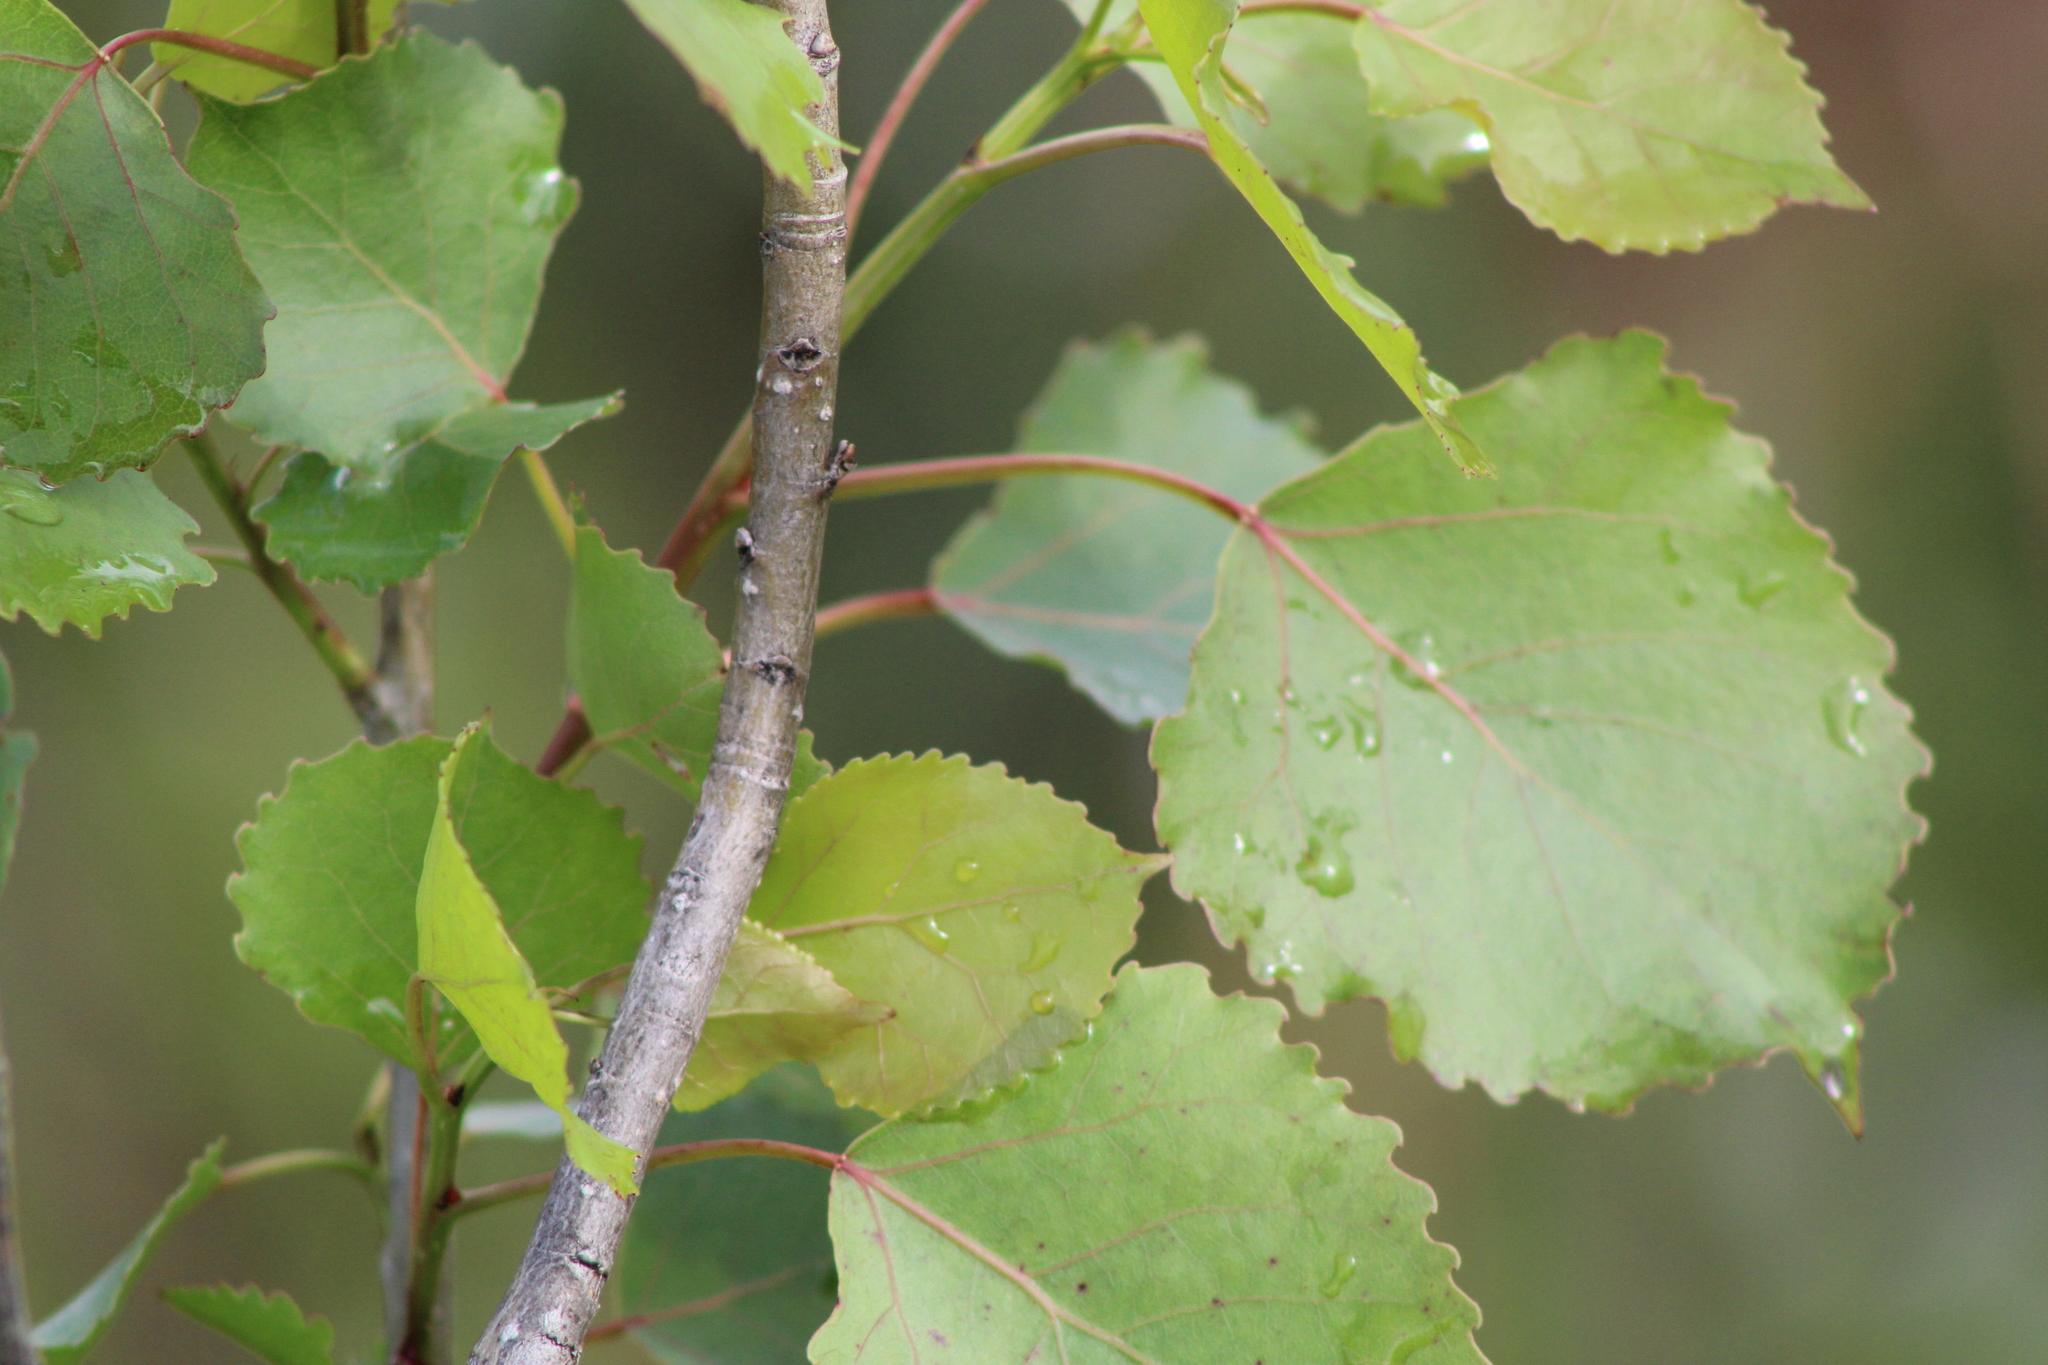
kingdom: Plantae
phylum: Tracheophyta
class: Magnoliopsida
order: Malpighiales
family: Salicaceae
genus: Populus
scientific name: Populus deltoides
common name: Eastern cottonwood
